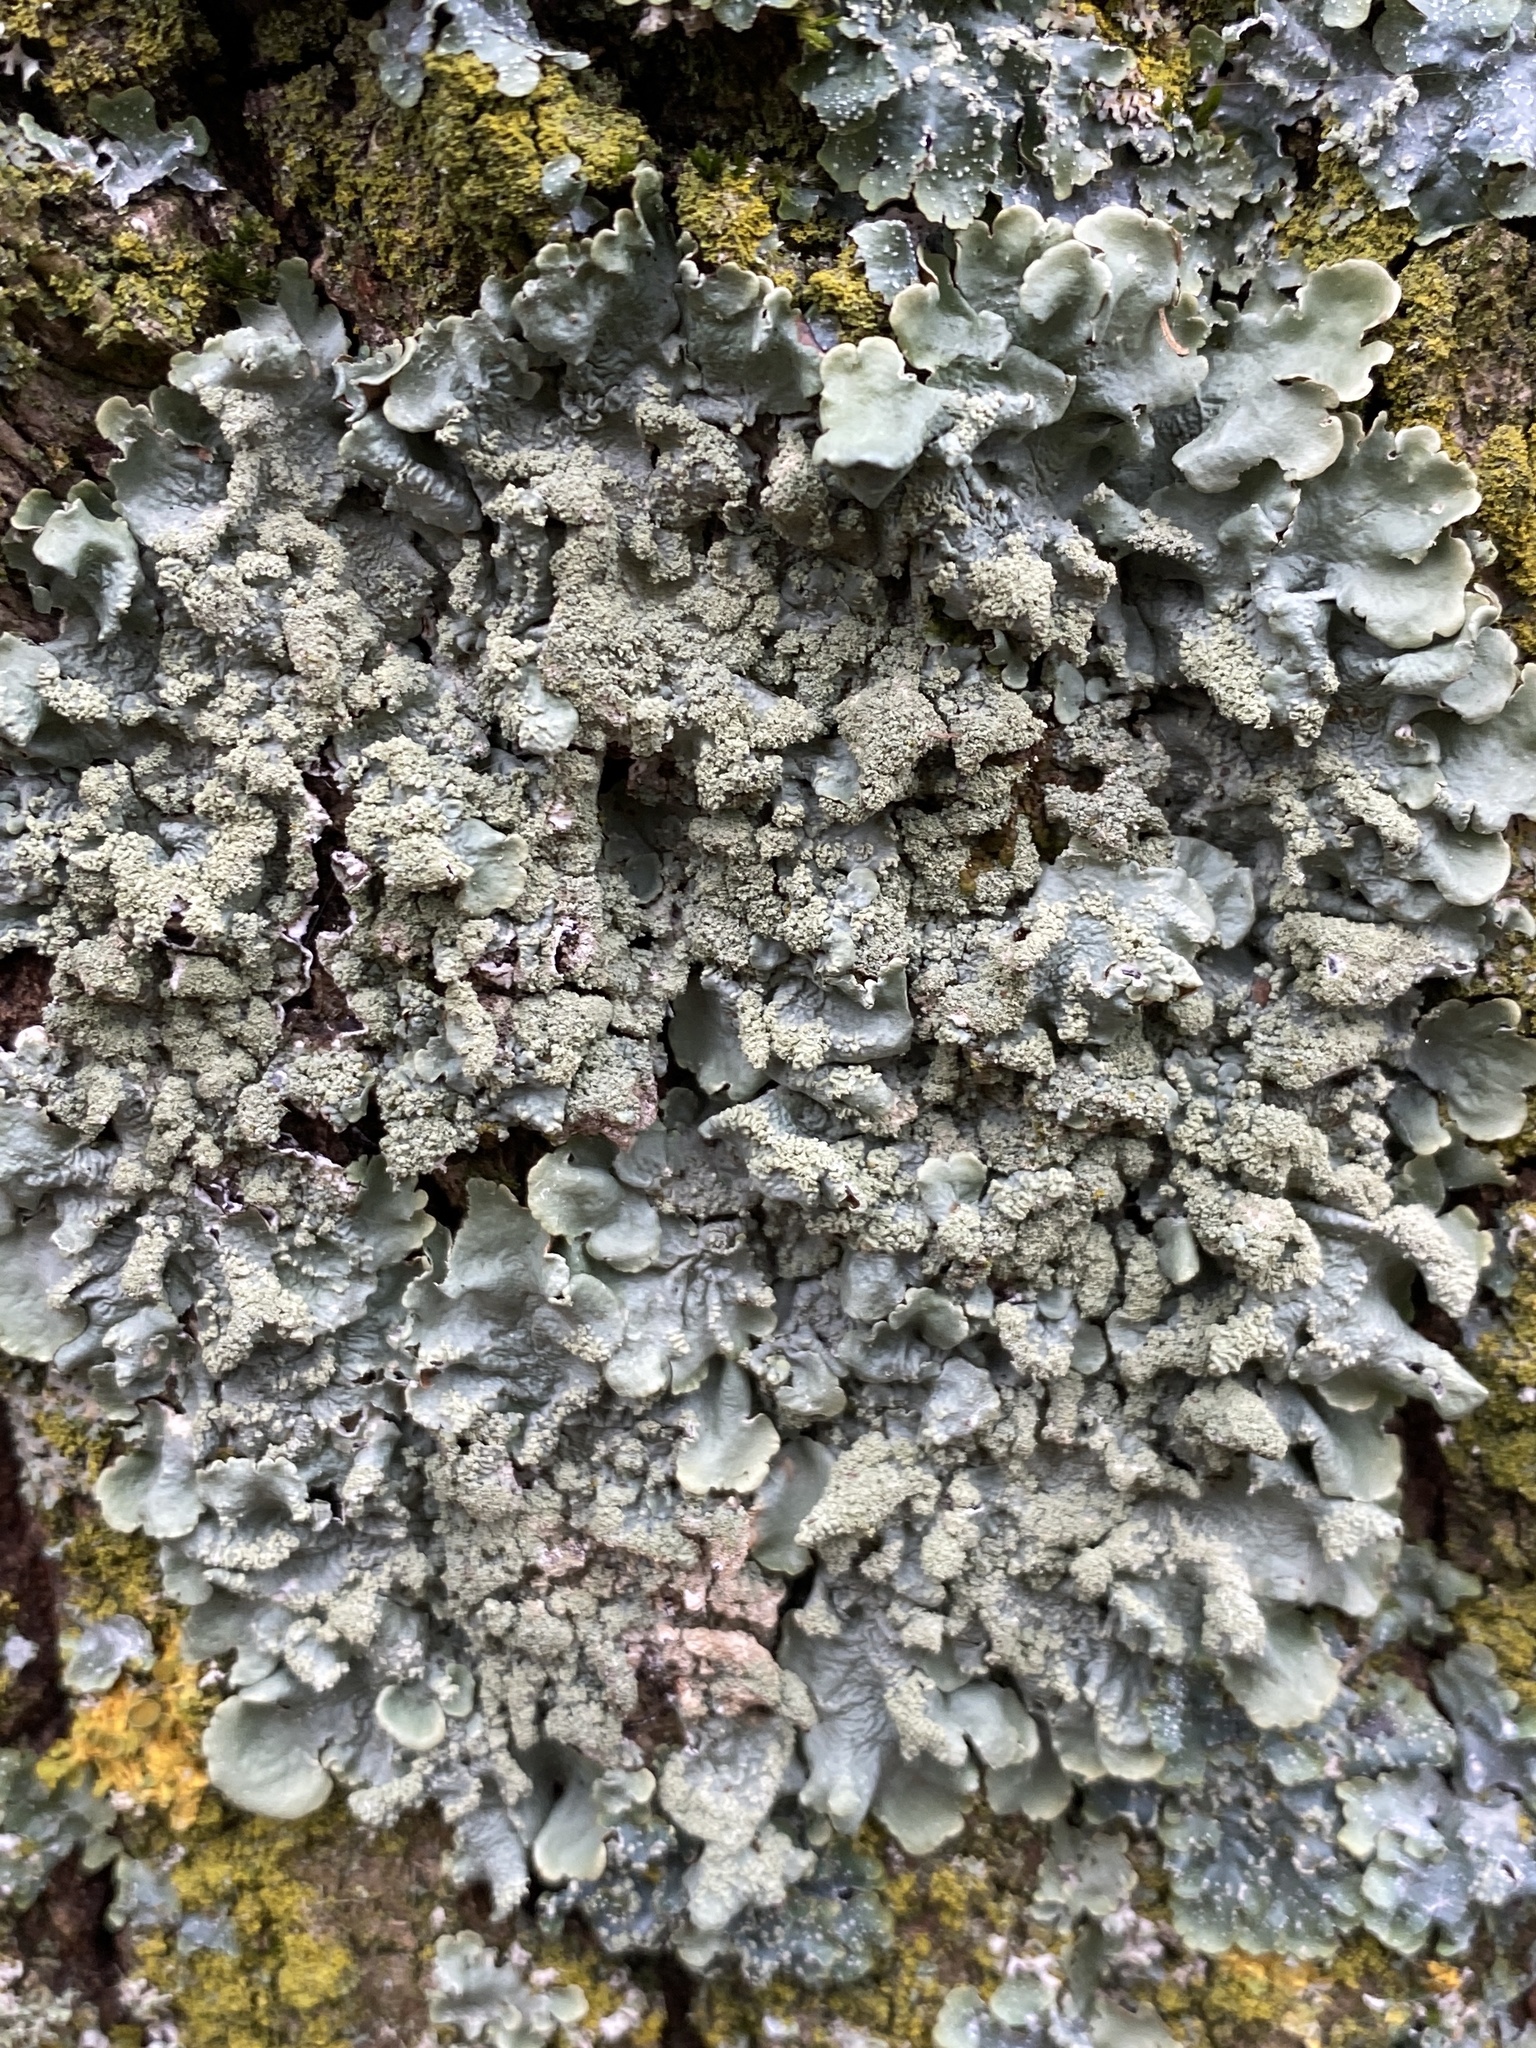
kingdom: Fungi
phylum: Ascomycota
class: Lecanoromycetes
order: Lecanorales
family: Parmeliaceae
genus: Flavoparmelia
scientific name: Flavoparmelia caperata
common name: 40-mile per hour lichen
